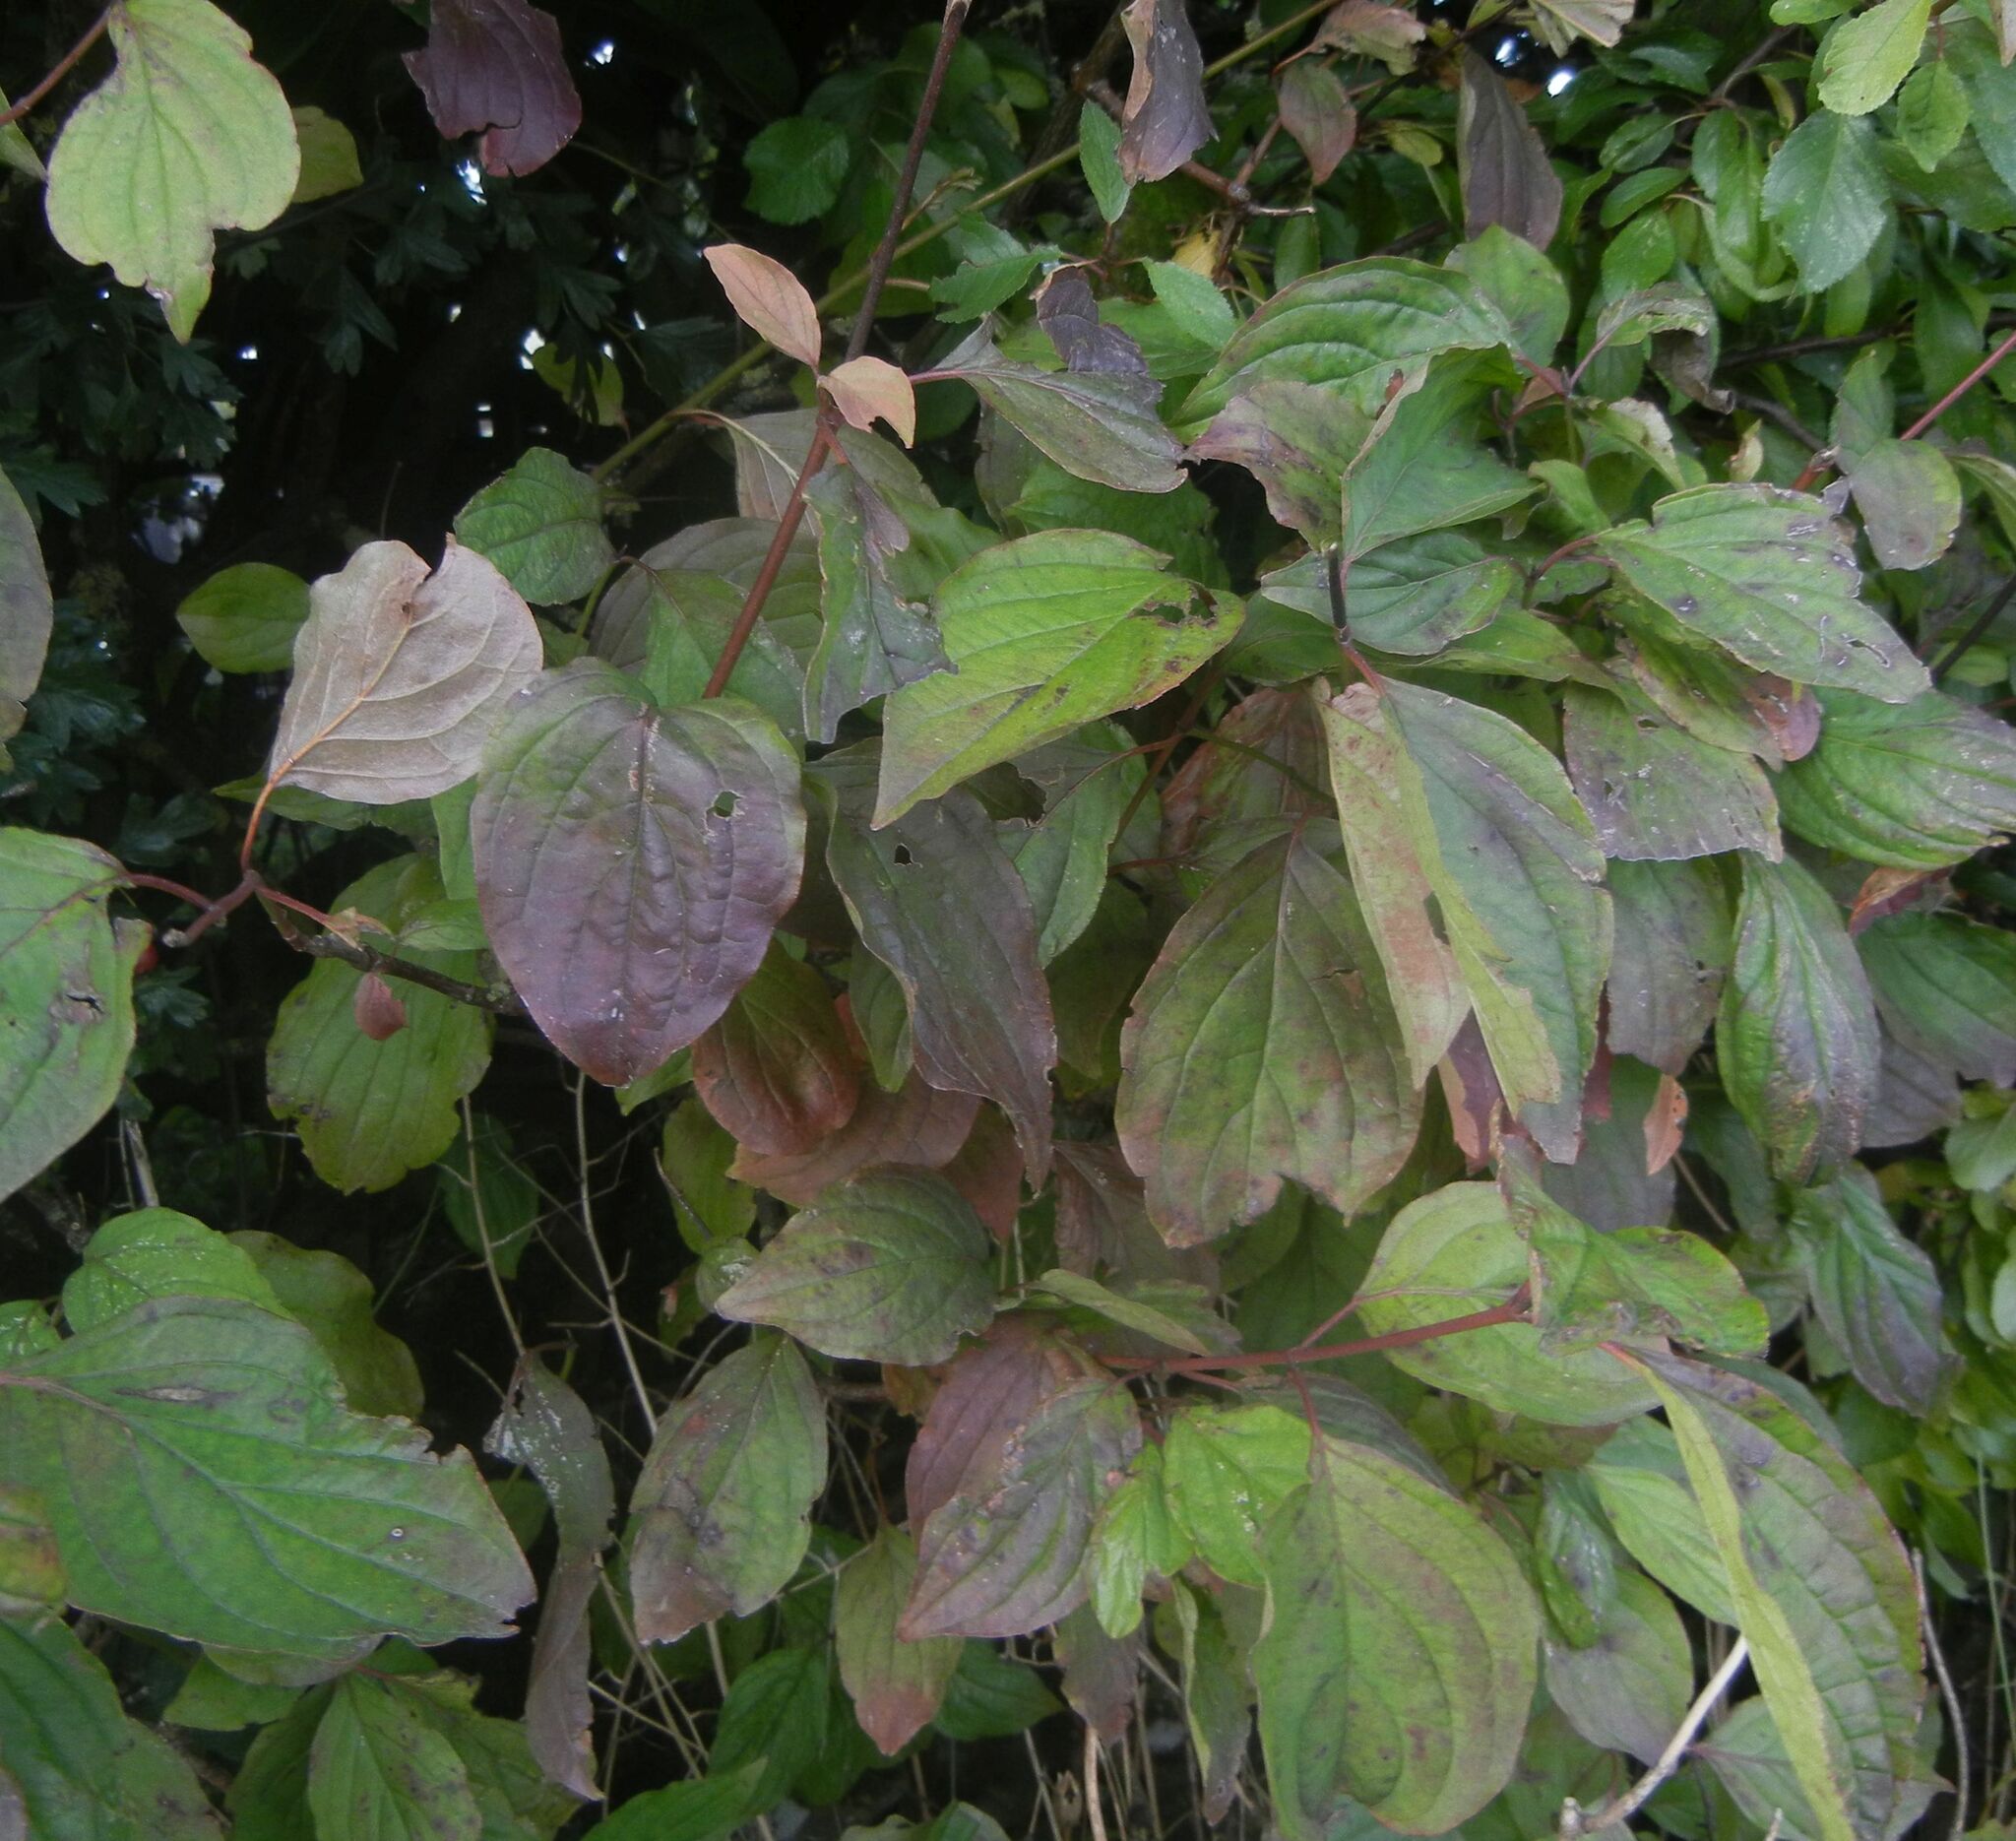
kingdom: Plantae
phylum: Tracheophyta
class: Magnoliopsida
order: Cornales
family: Cornaceae
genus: Cornus
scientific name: Cornus sanguinea
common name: Dogwood
